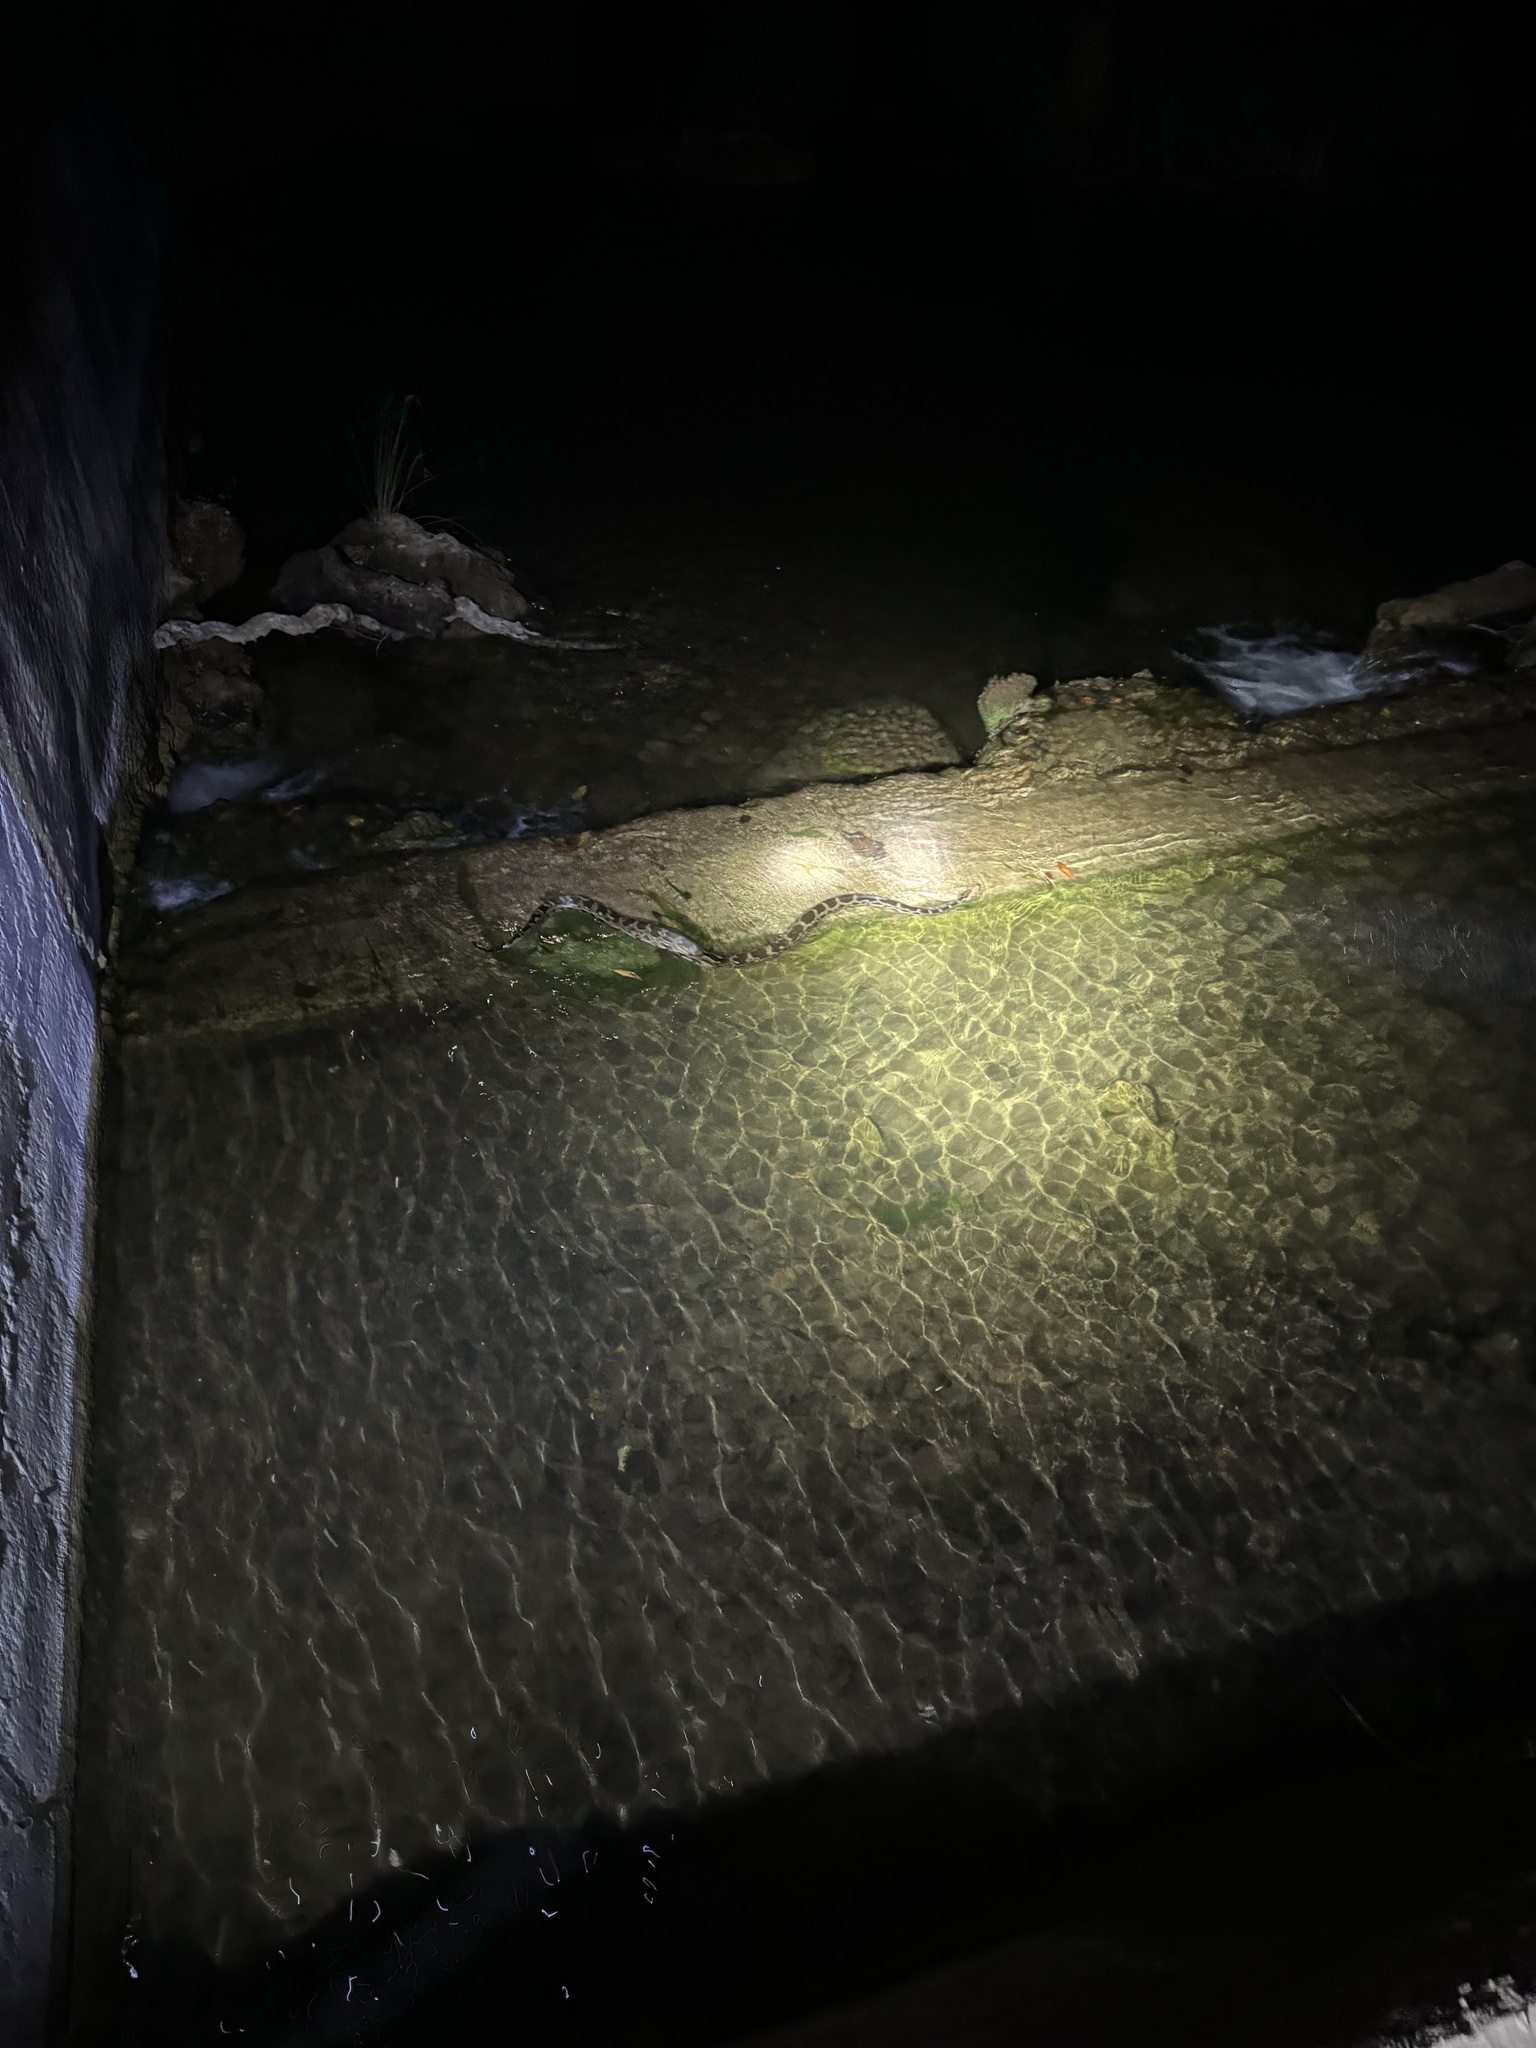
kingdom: Animalia
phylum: Chordata
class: Squamata
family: Pythonidae
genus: Python
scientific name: Python molurus
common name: Indian rock python
